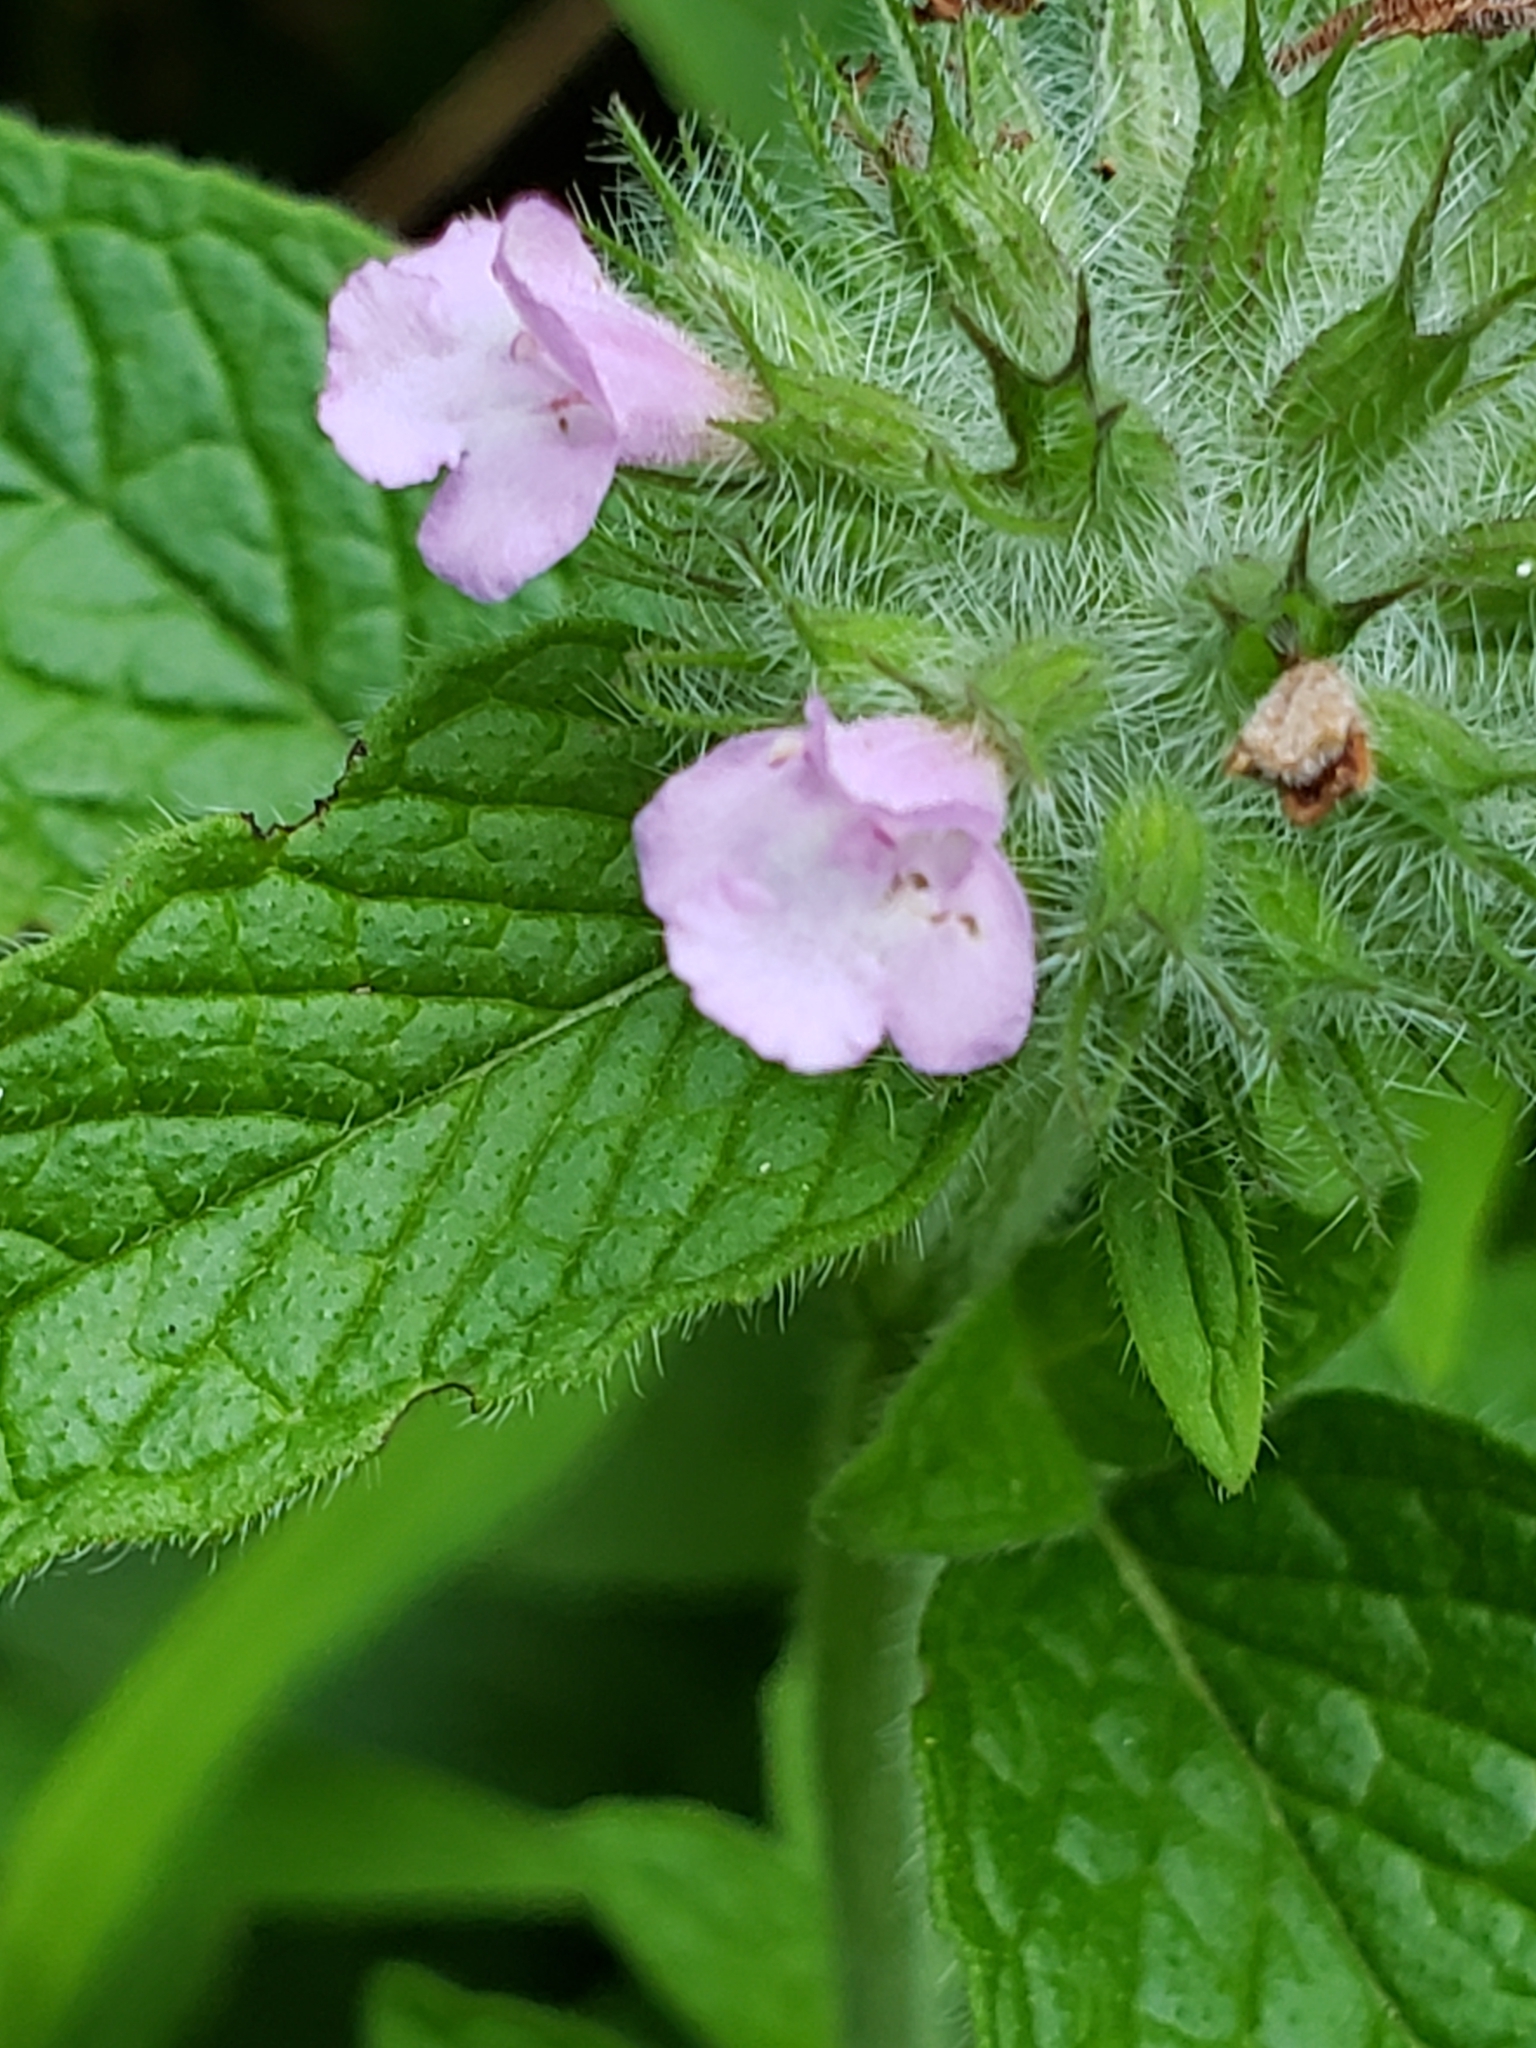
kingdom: Plantae
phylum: Tracheophyta
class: Magnoliopsida
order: Lamiales
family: Lamiaceae
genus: Clinopodium
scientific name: Clinopodium vulgare
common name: Wild basil
